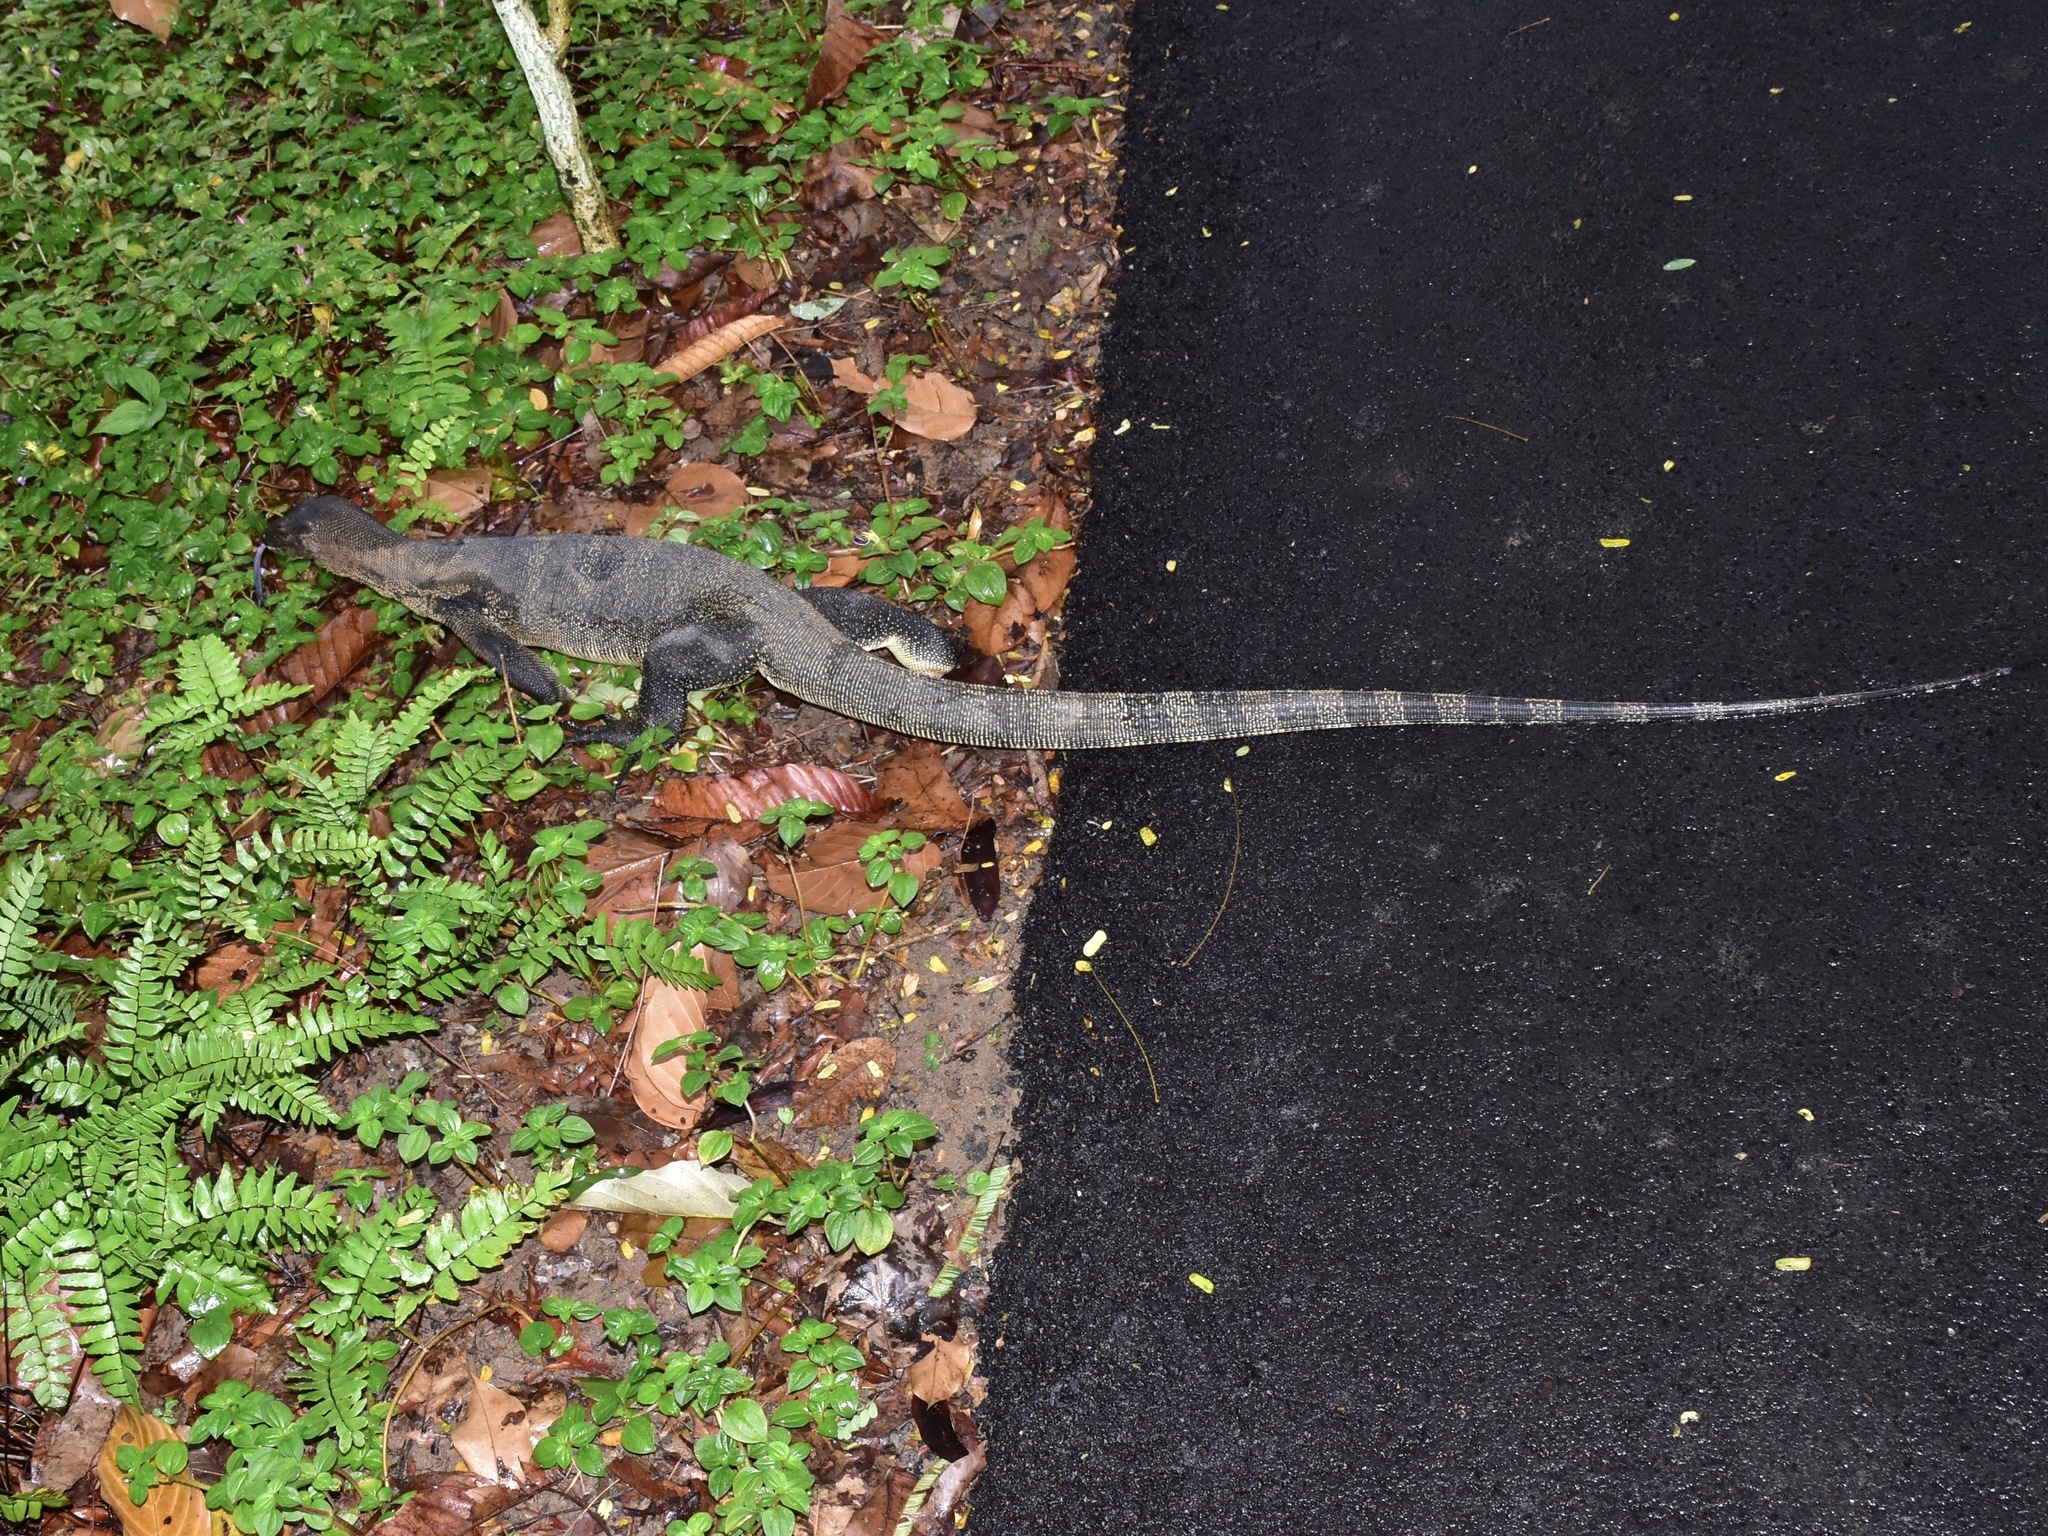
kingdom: Animalia
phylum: Chordata
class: Squamata
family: Varanidae
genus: Varanus
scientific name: Varanus salvator
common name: Common water monitor
